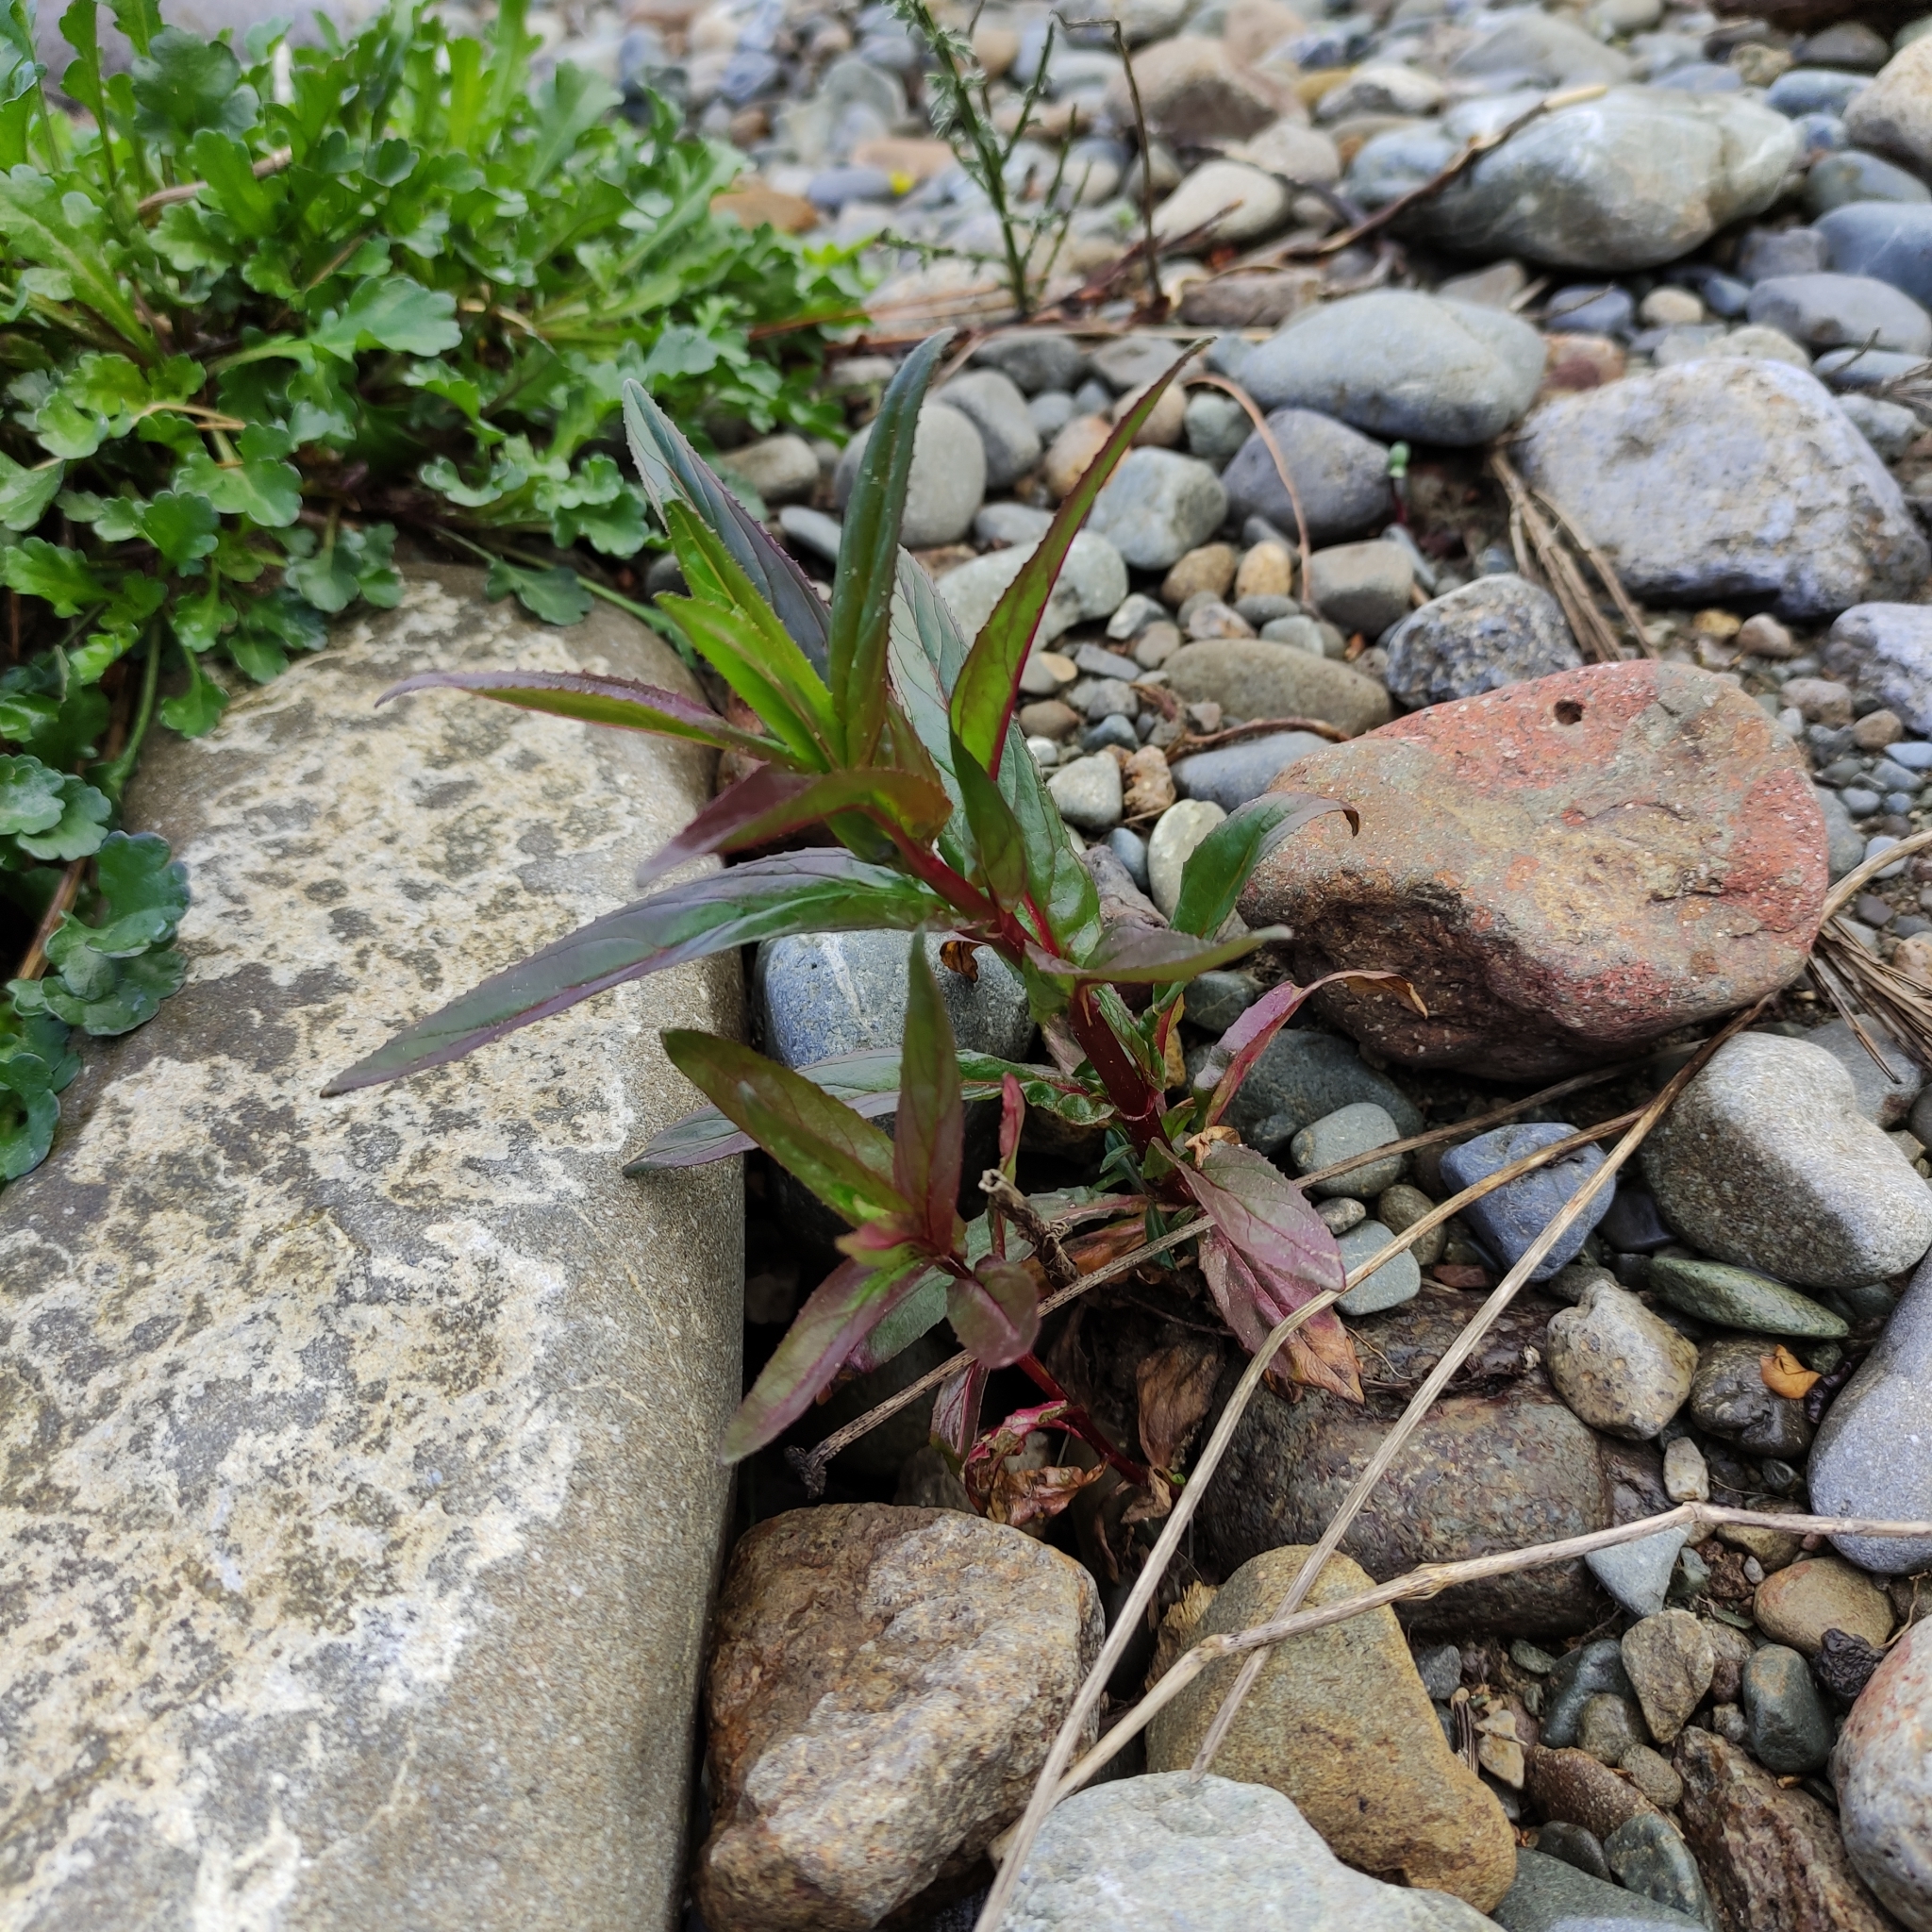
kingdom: Plantae
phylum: Tracheophyta
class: Magnoliopsida
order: Myrtales
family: Onagraceae
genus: Epilobium
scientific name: Epilobium ciliatum
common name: American willowherb
